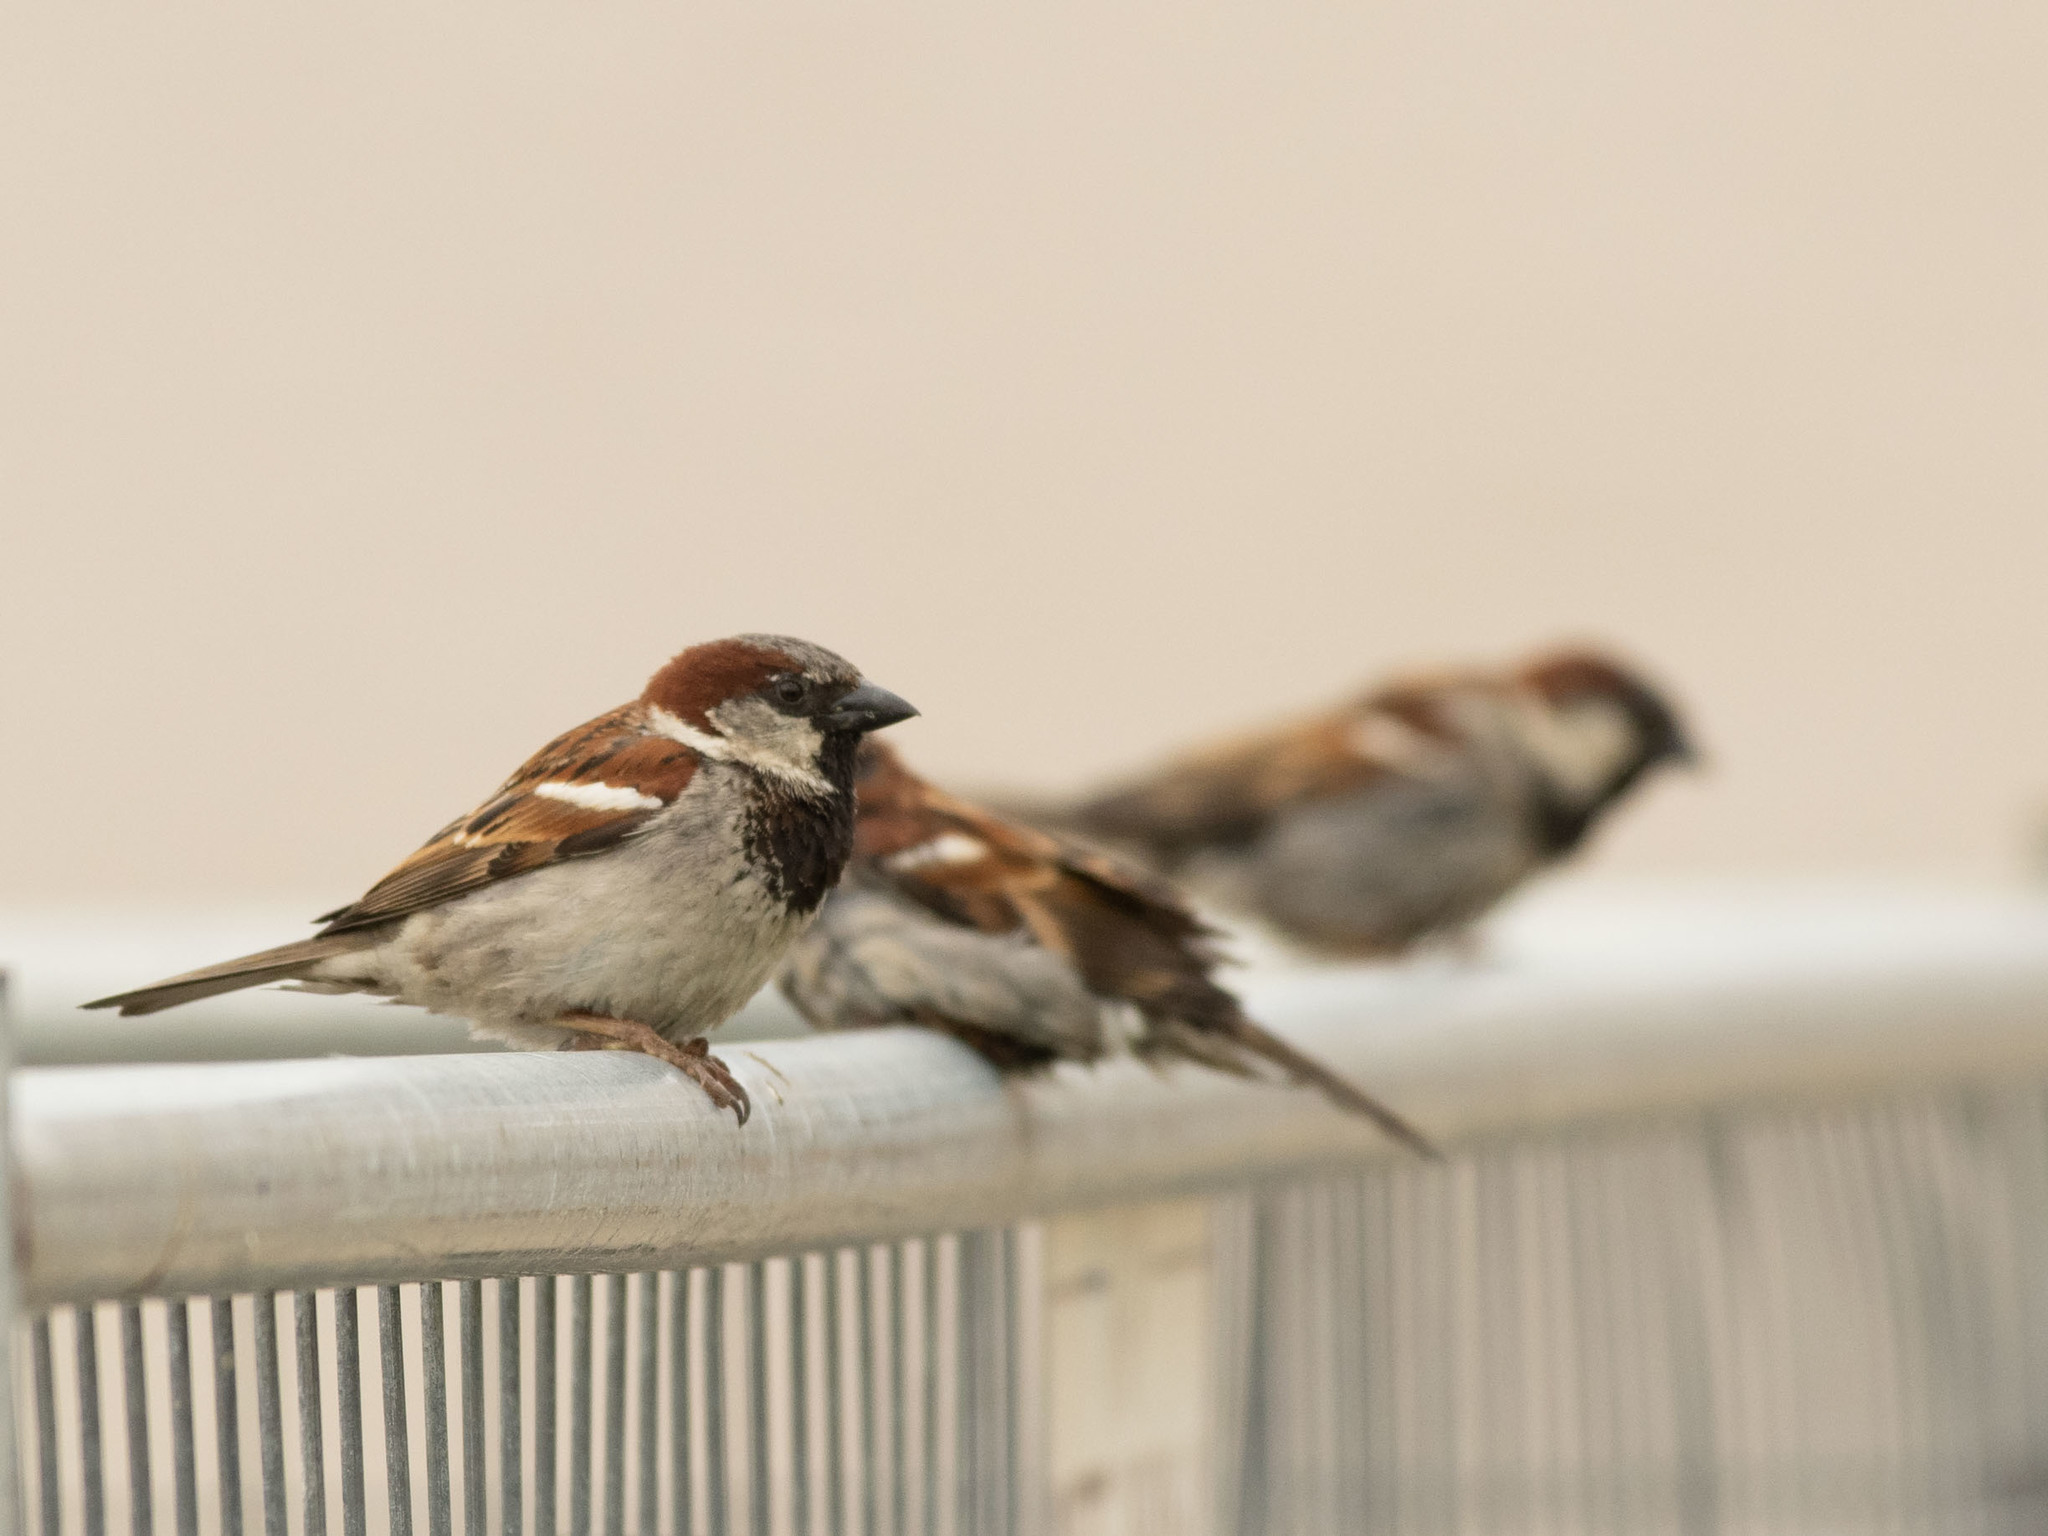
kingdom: Animalia
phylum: Chordata
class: Aves
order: Passeriformes
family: Passeridae
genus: Passer
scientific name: Passer domesticus
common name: House sparrow
